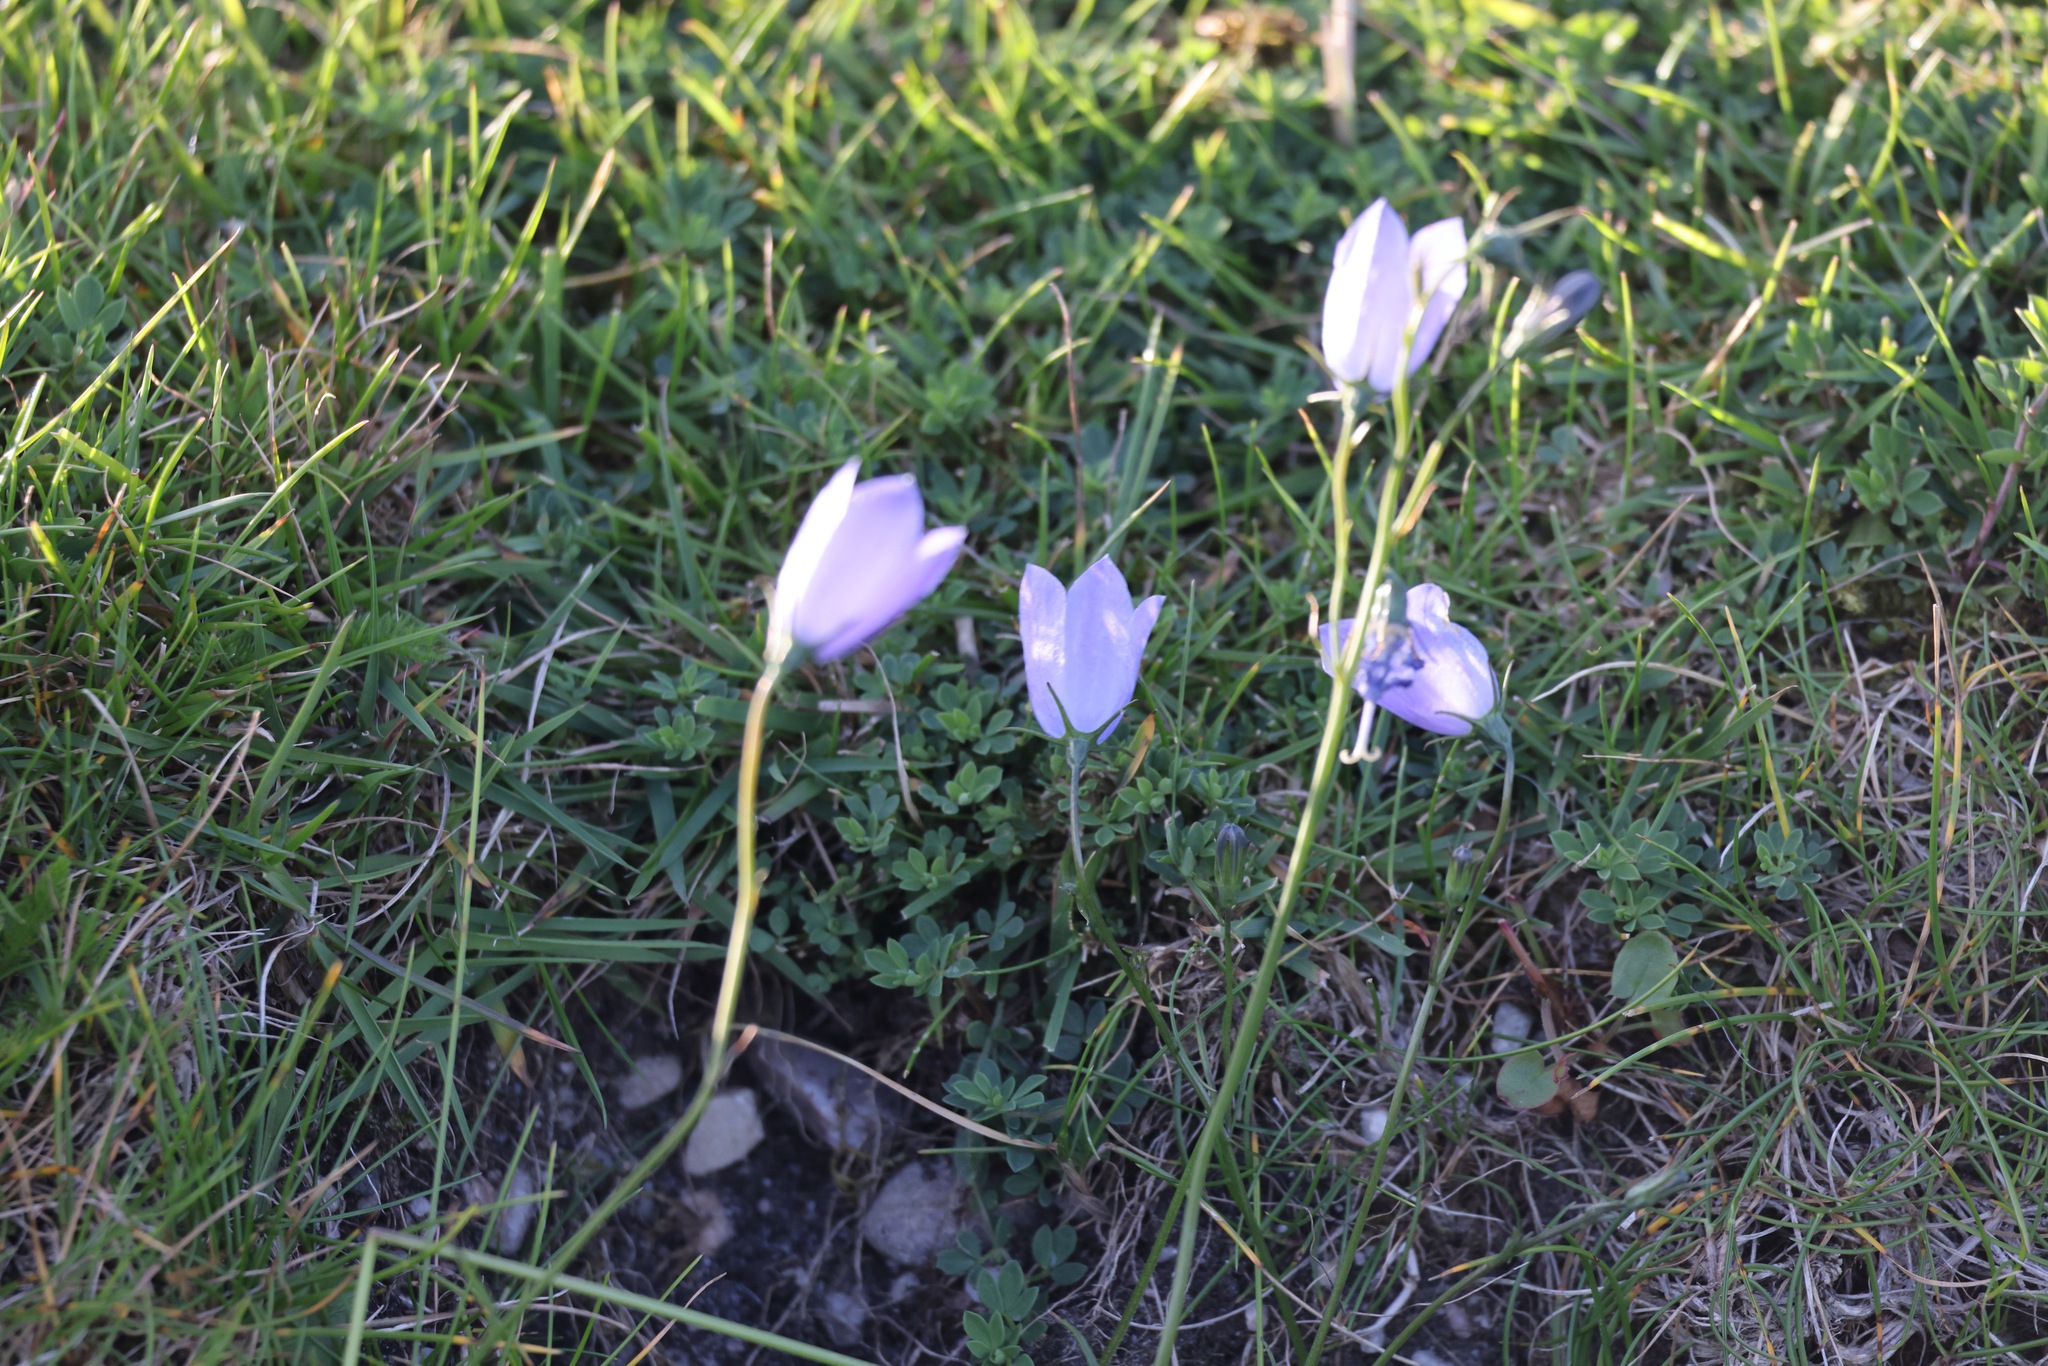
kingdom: Plantae
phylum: Tracheophyta
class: Magnoliopsida
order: Asterales
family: Campanulaceae
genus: Campanula
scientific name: Campanula rotundifolia
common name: Harebell
